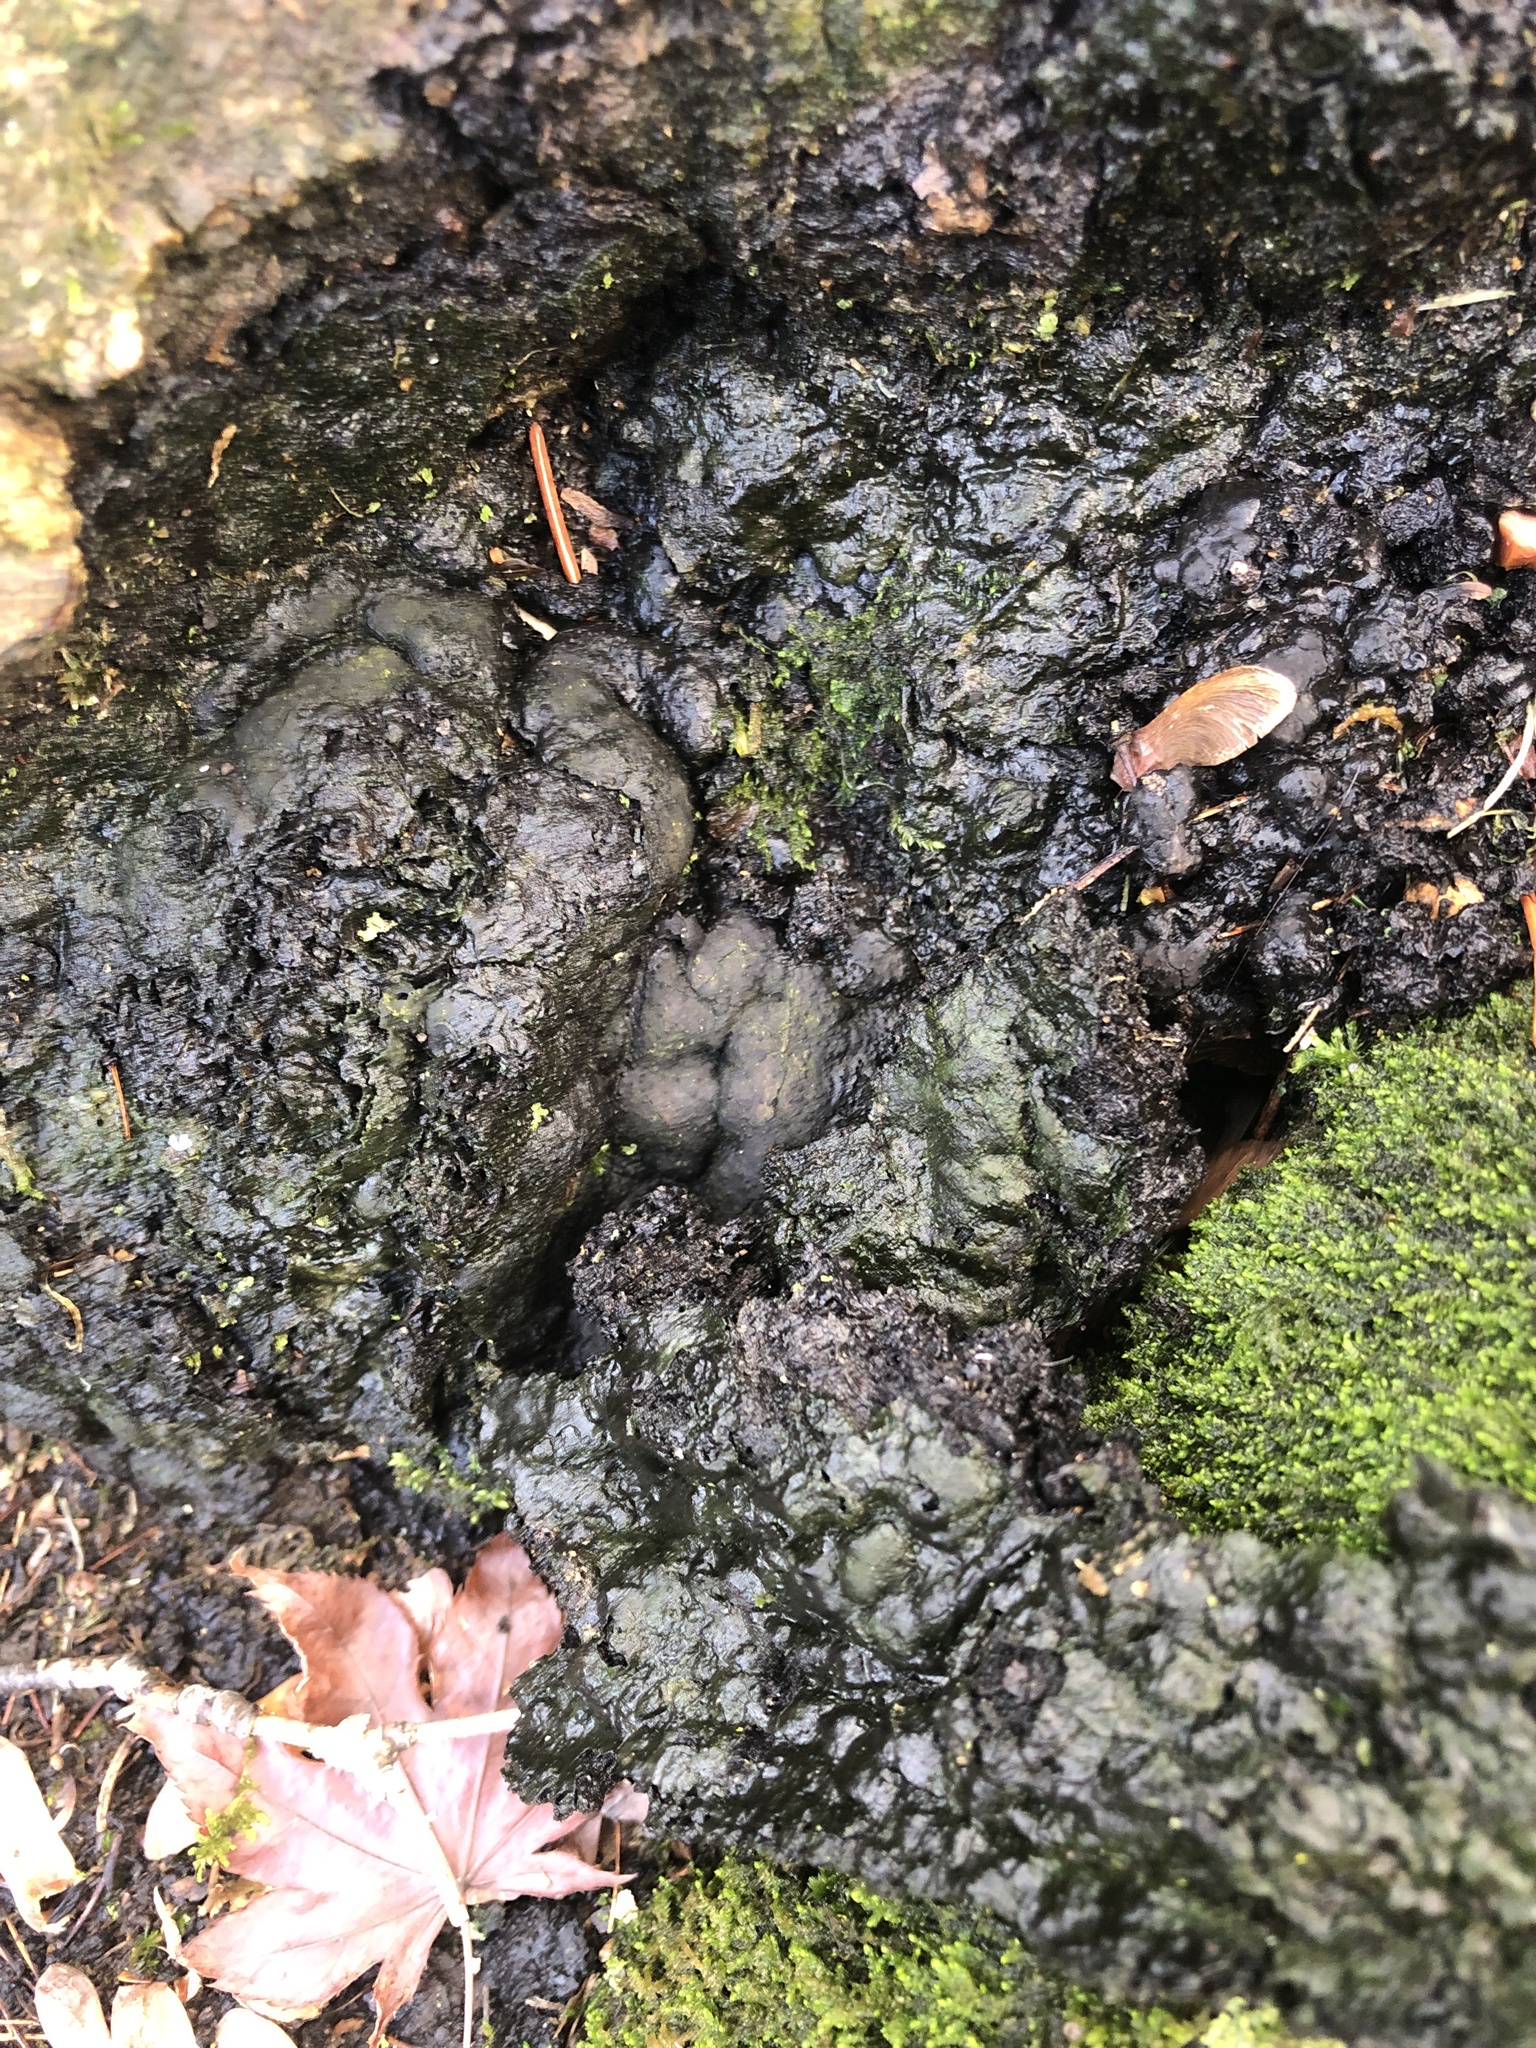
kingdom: Fungi
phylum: Ascomycota
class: Sordariomycetes
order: Xylariales
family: Xylariaceae
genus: Kretzschmaria
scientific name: Kretzschmaria deusta
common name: Brittle cinder
